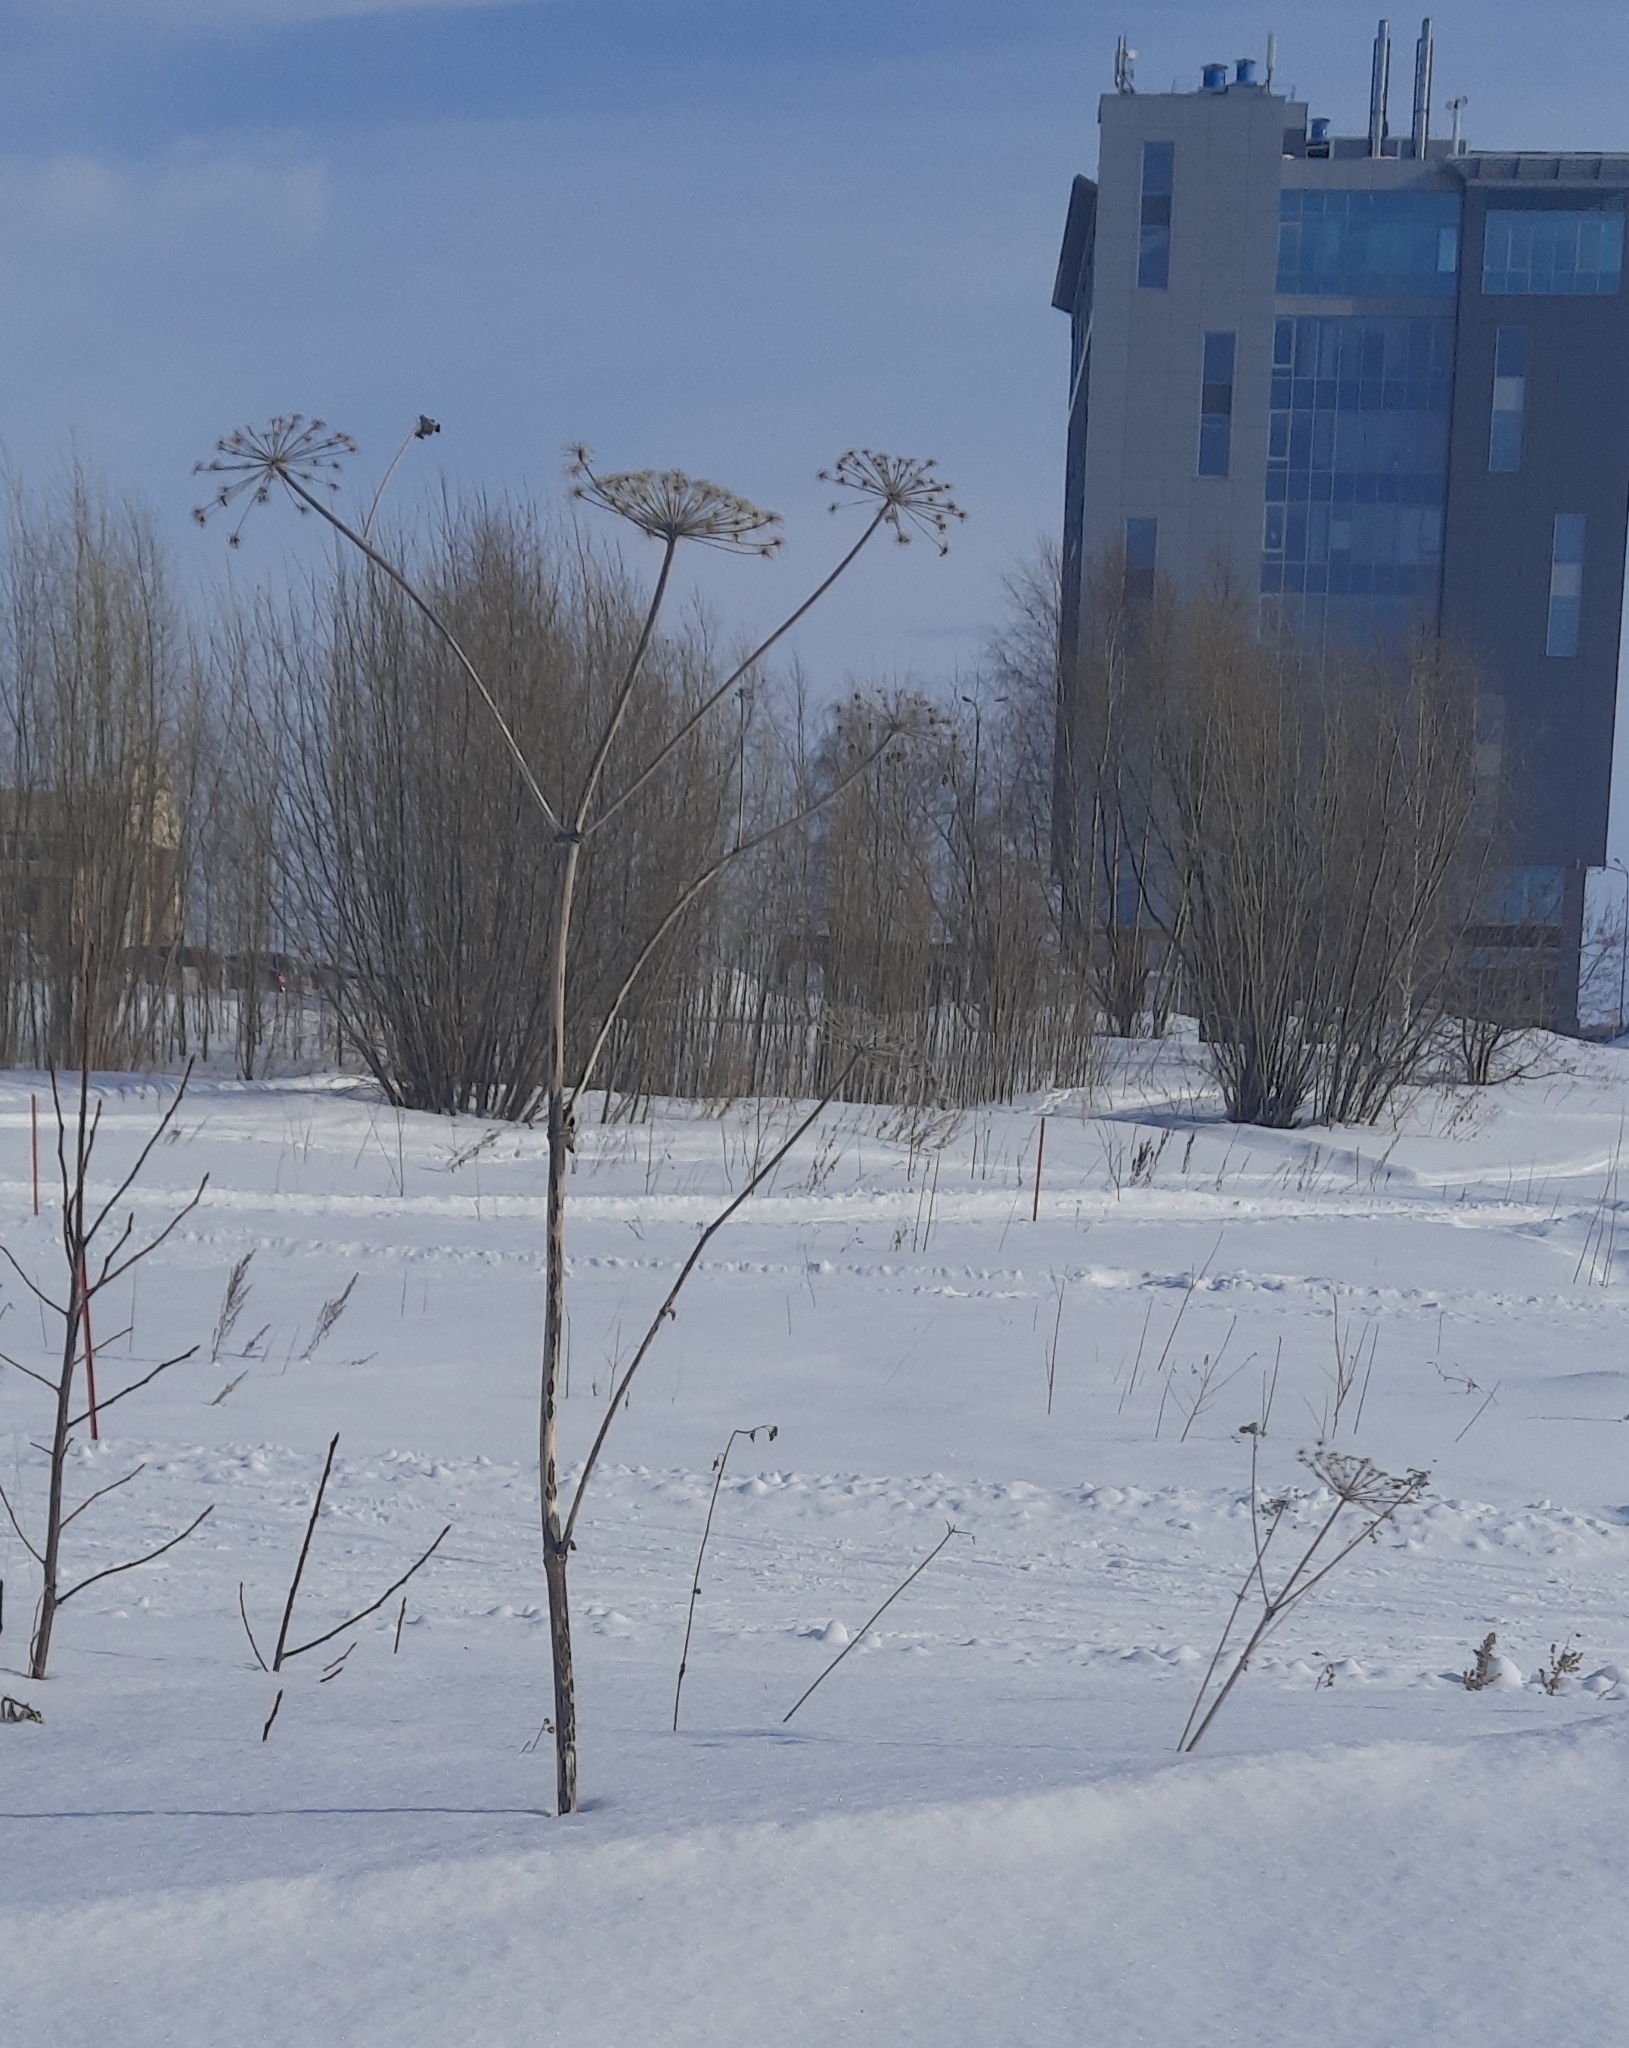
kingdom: Plantae
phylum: Tracheophyta
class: Magnoliopsida
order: Apiales
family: Apiaceae
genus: Heracleum
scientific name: Heracleum sosnowskyi
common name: Sosnowsky's hogweed
